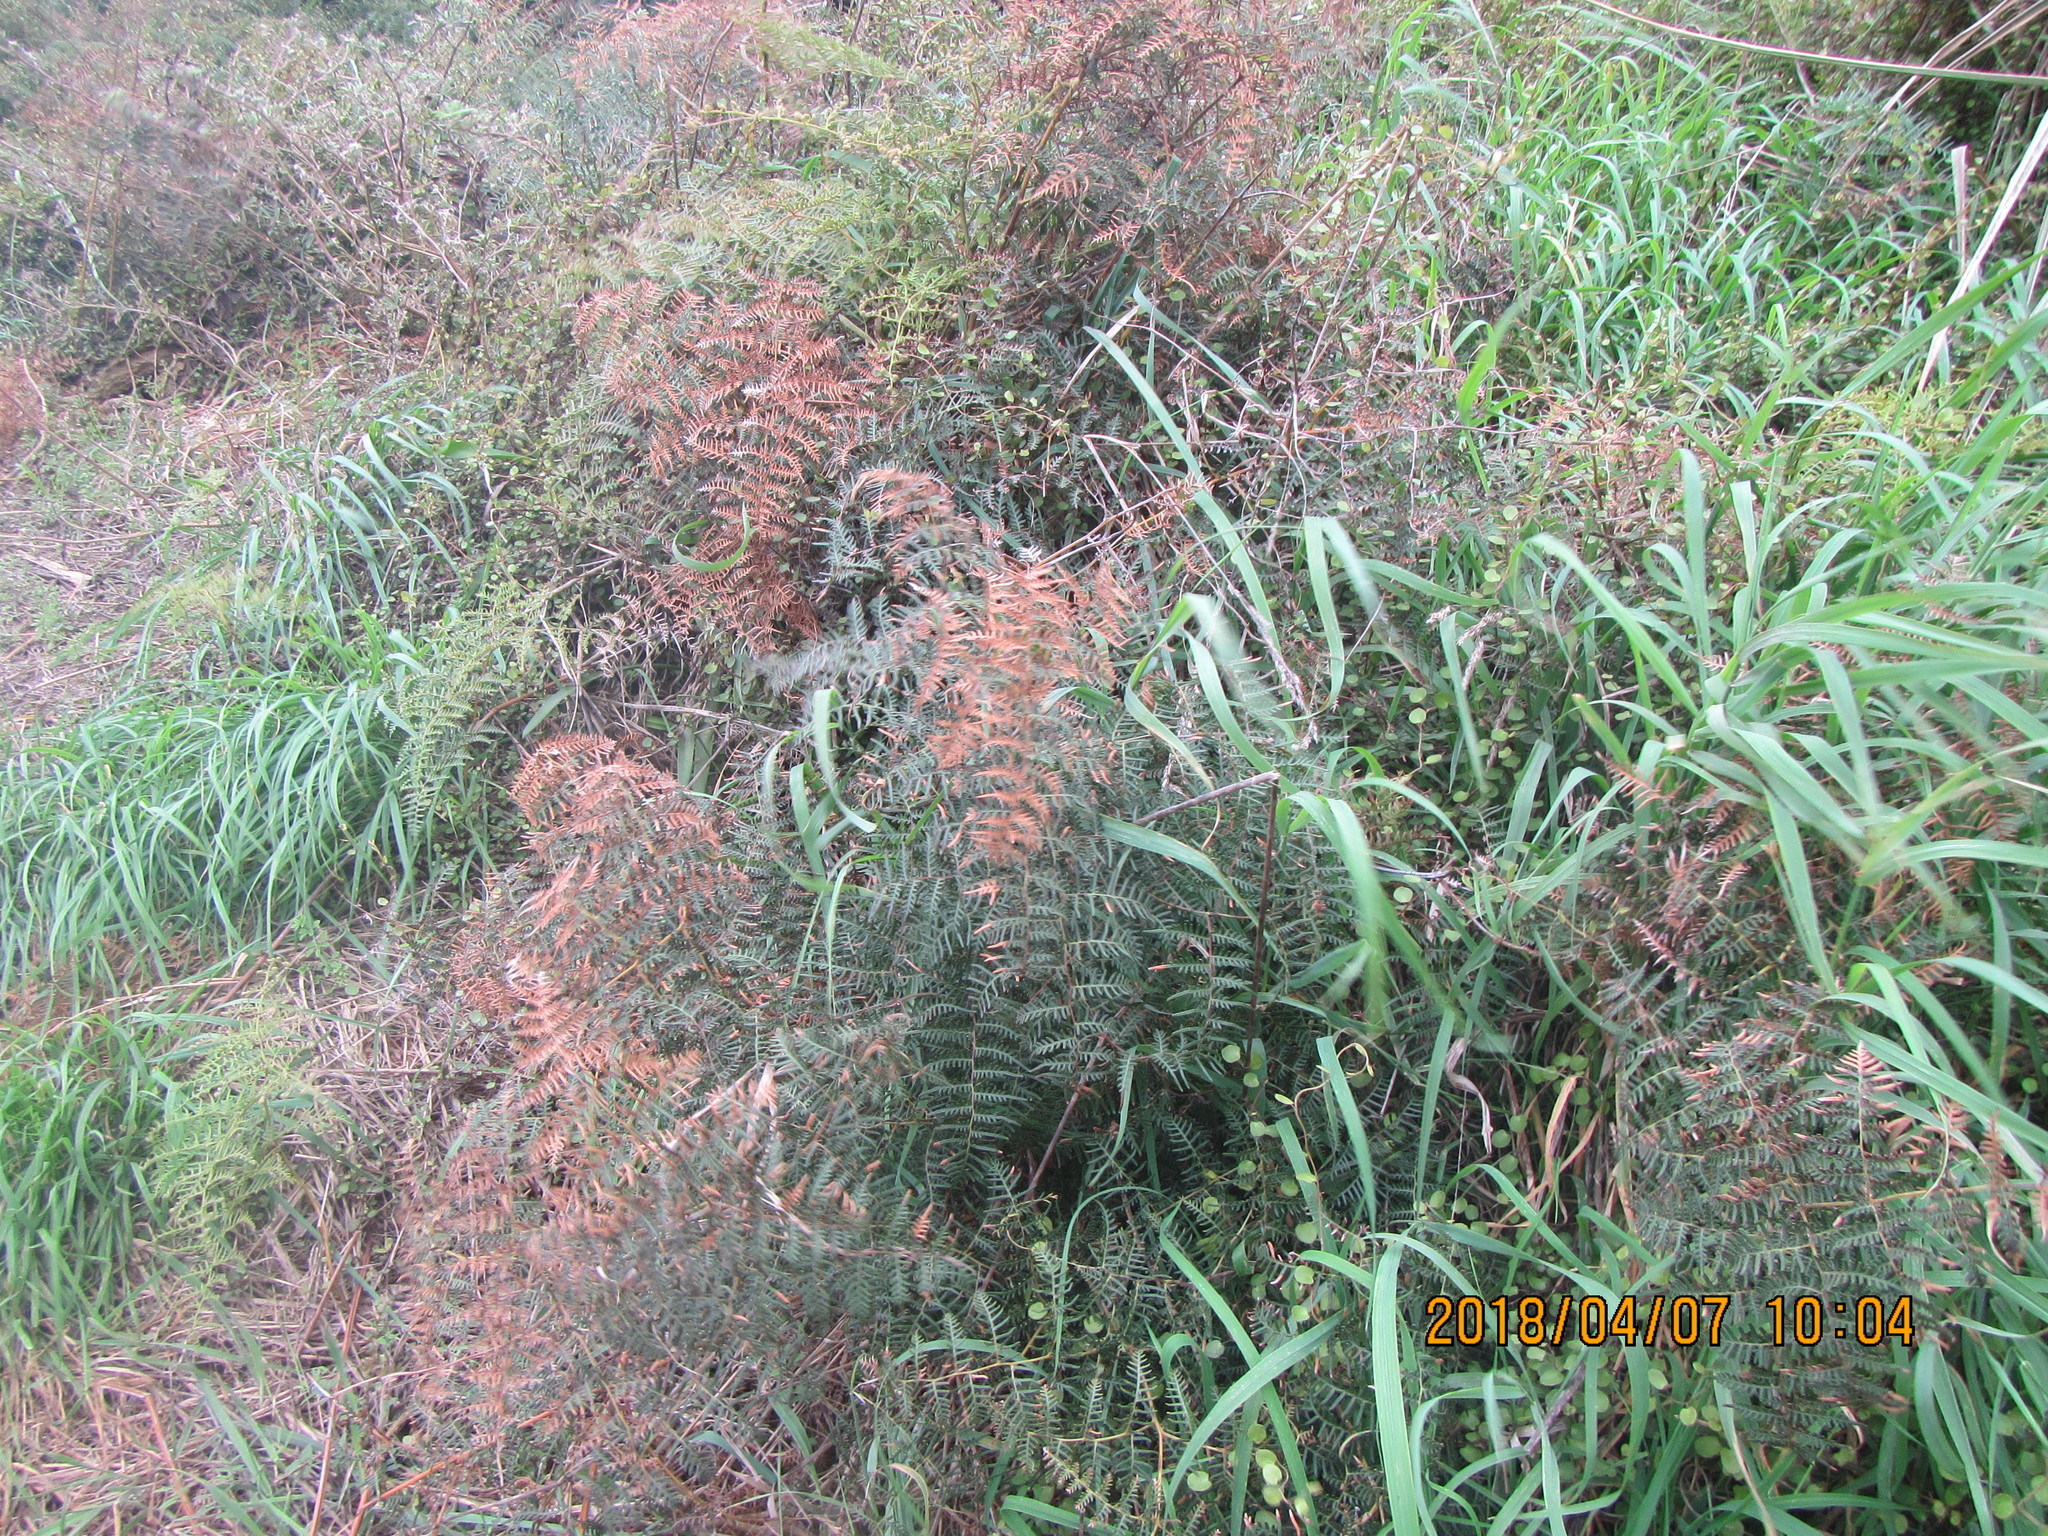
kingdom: Plantae
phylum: Tracheophyta
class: Polypodiopsida
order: Polypodiales
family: Dennstaedtiaceae
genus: Pteridium
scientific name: Pteridium esculentum
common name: Bracken fern
